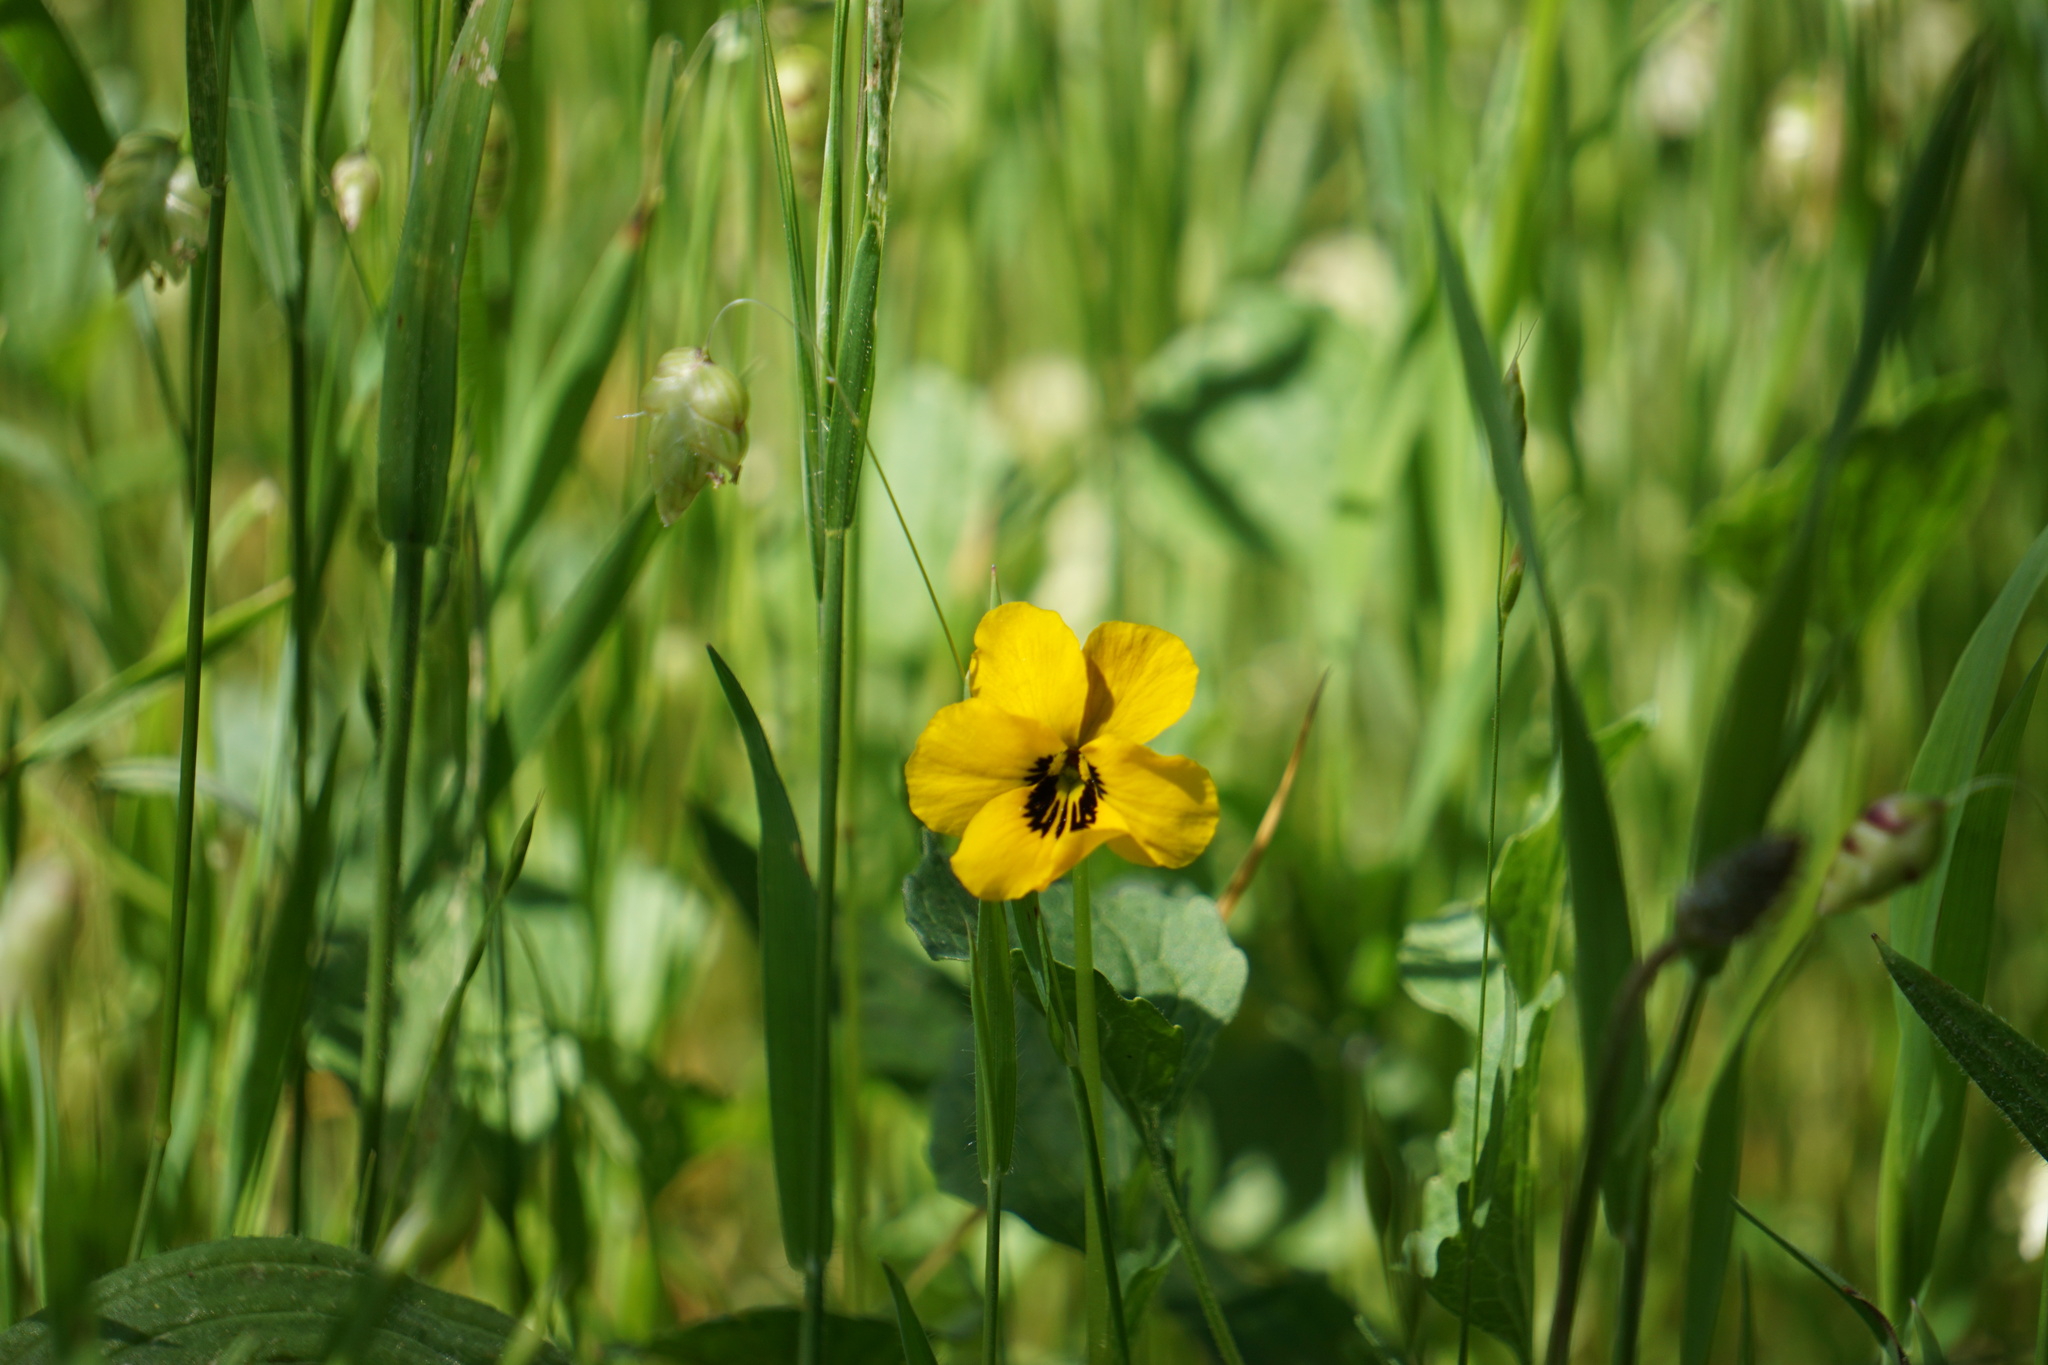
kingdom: Plantae
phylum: Tracheophyta
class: Magnoliopsida
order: Malpighiales
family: Violaceae
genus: Viola
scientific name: Viola pedunculata
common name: California golden violet
